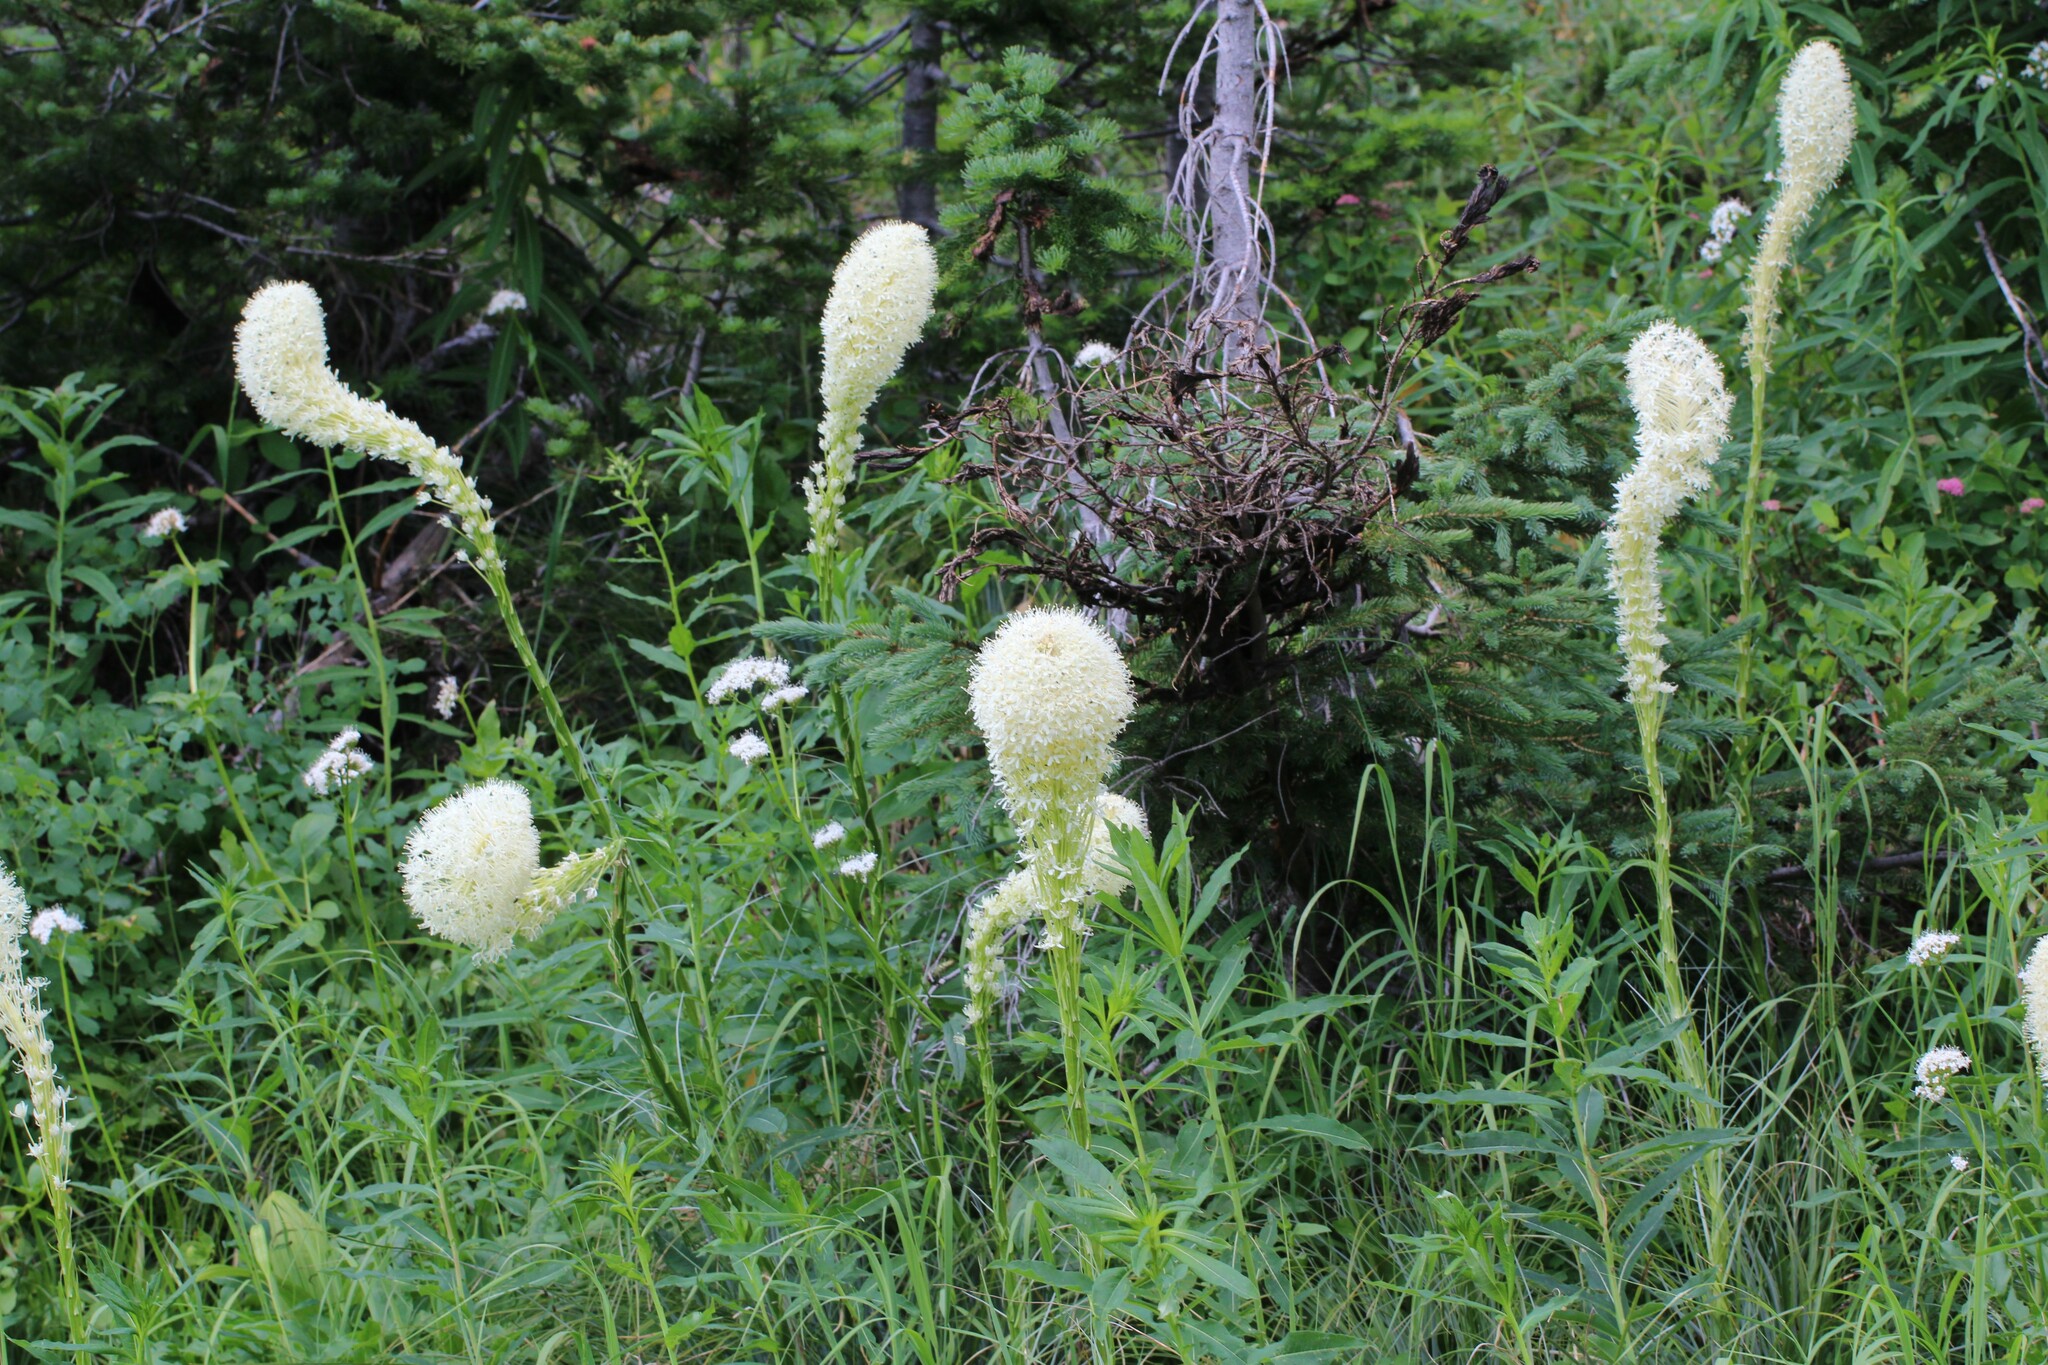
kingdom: Plantae
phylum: Tracheophyta
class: Liliopsida
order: Liliales
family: Melanthiaceae
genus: Xerophyllum
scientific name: Xerophyllum tenax
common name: Bear-grass
